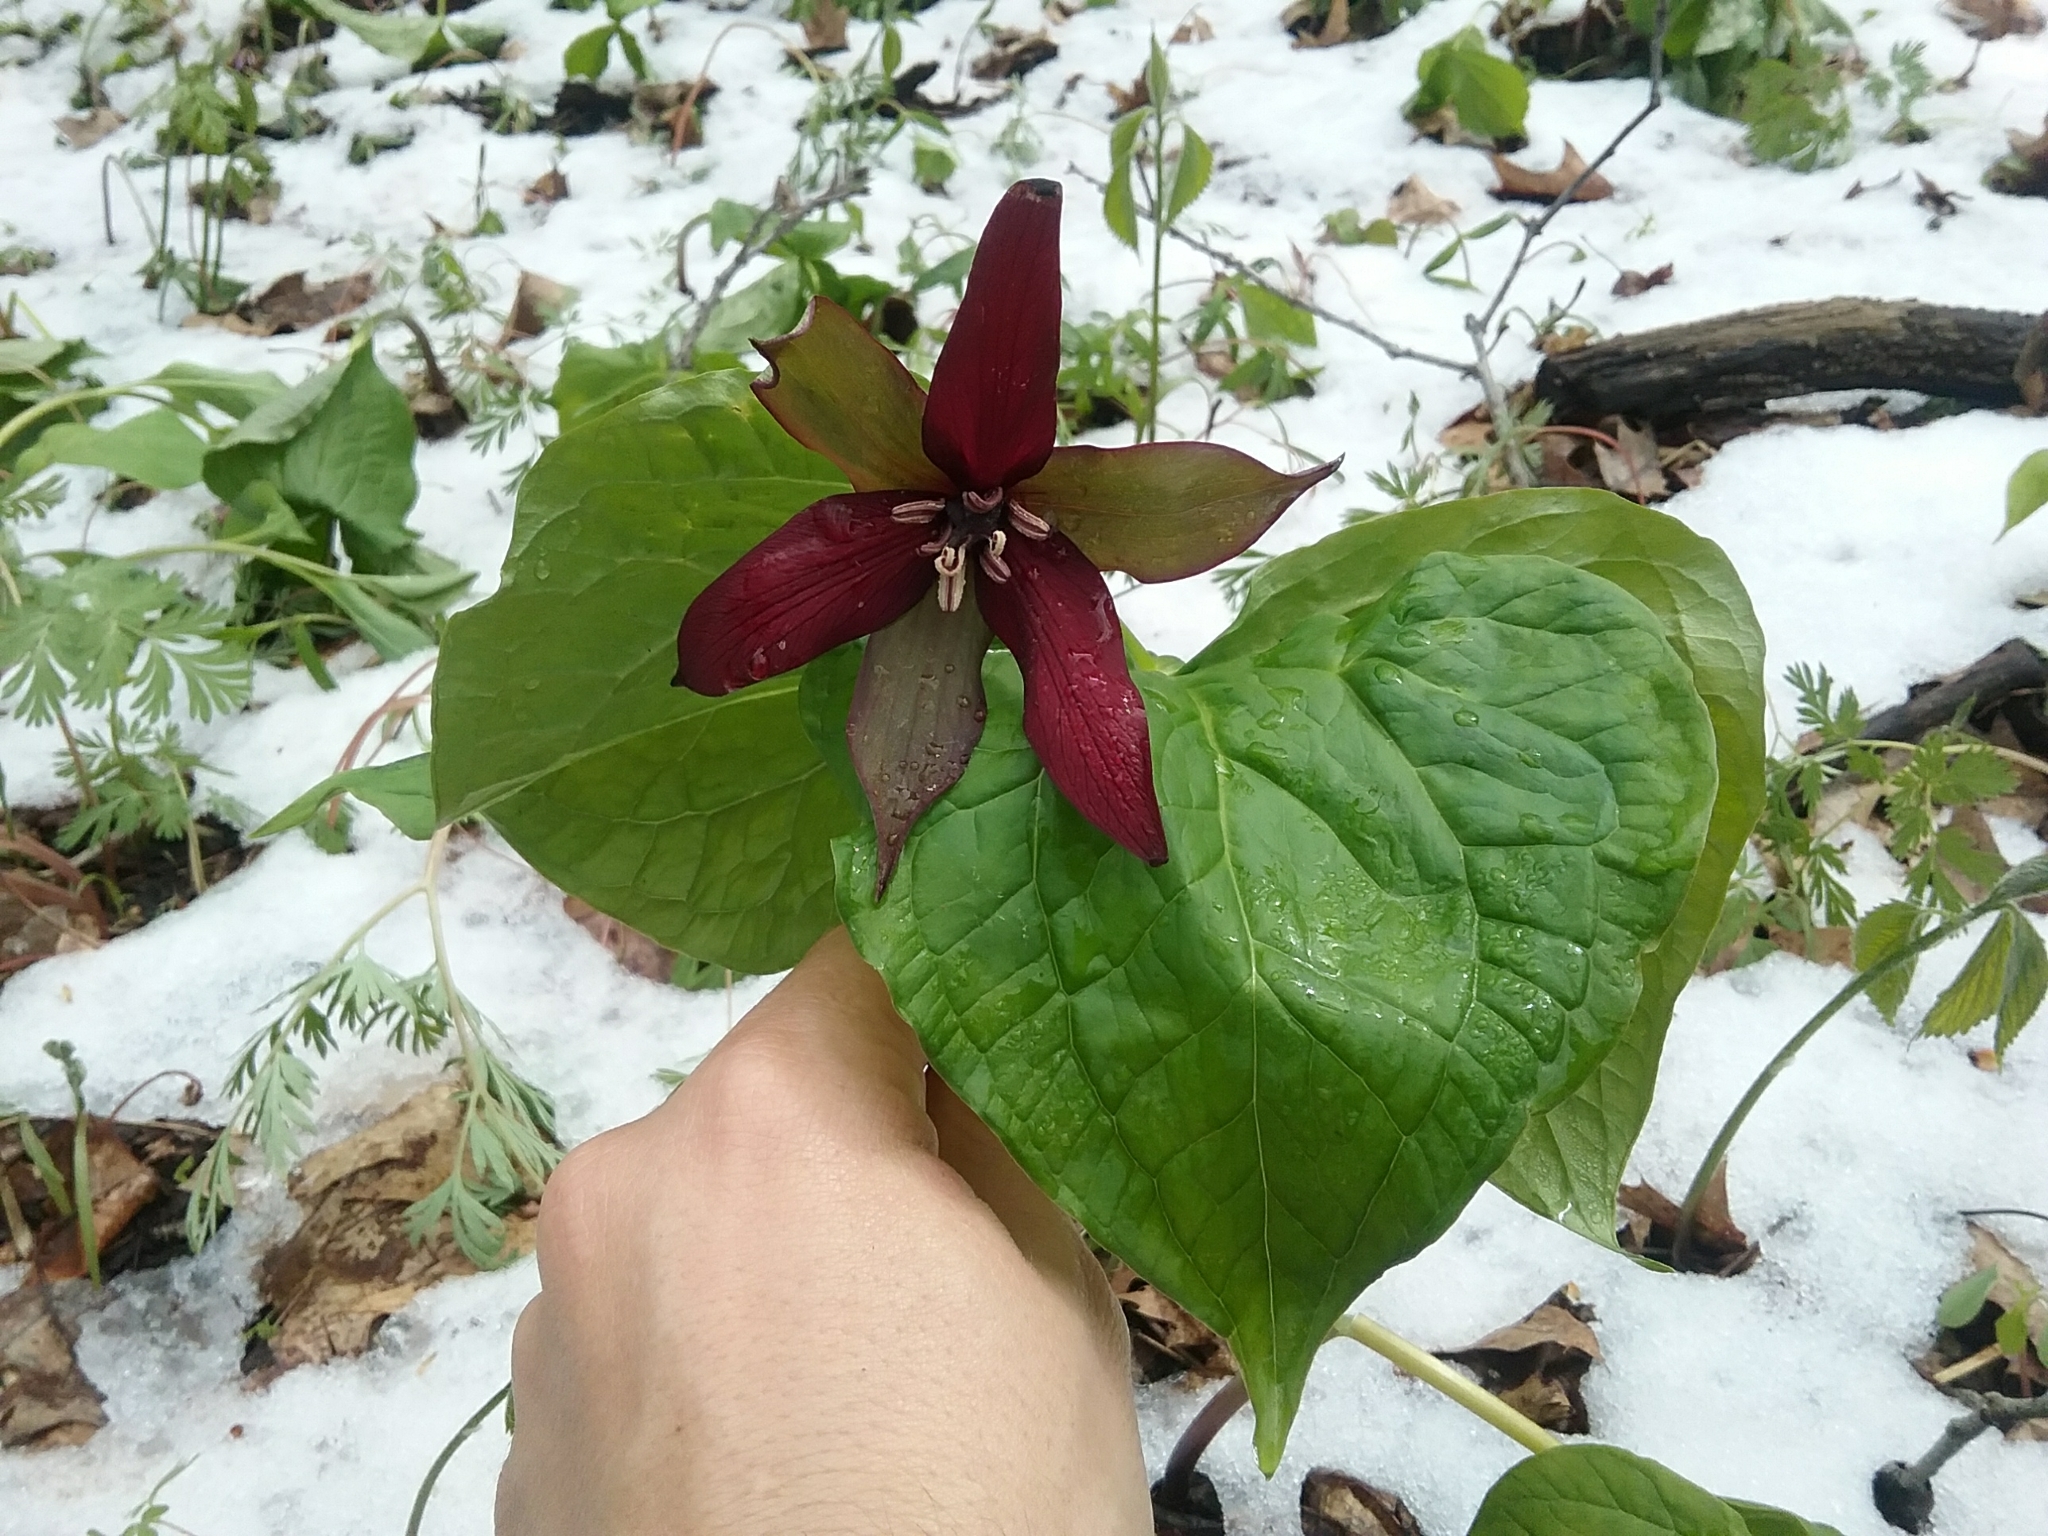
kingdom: Plantae
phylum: Tracheophyta
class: Liliopsida
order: Liliales
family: Melanthiaceae
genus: Trillium
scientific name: Trillium erectum
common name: Purple trillium
